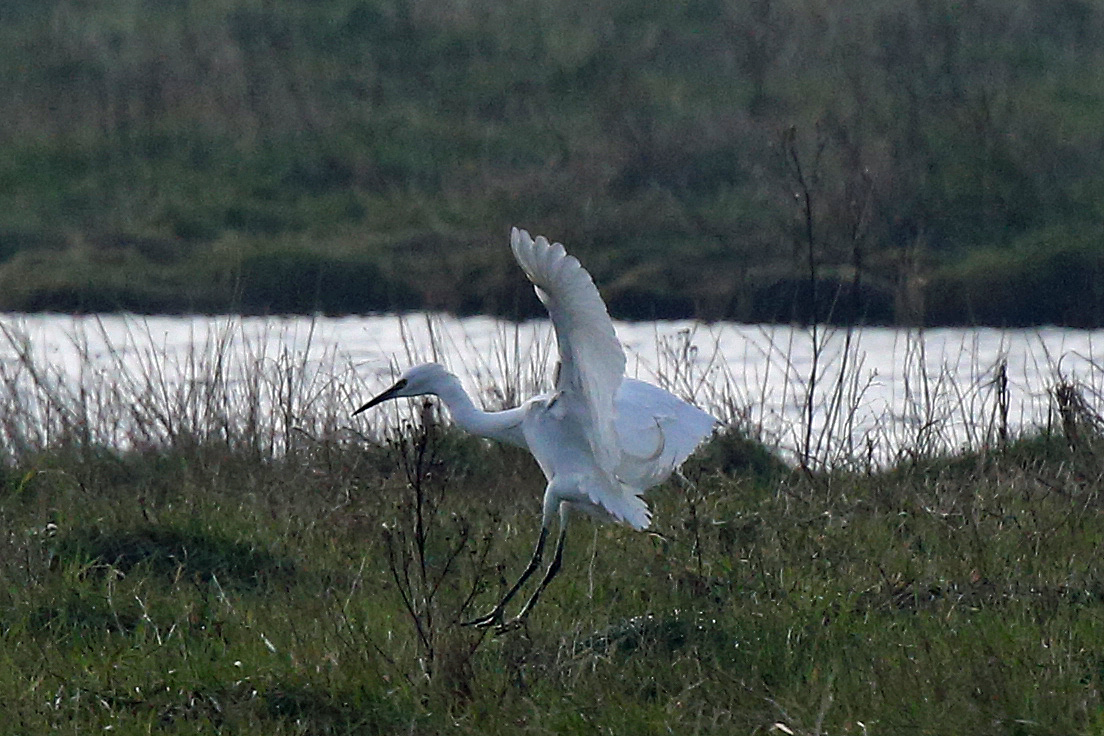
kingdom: Animalia
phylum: Chordata
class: Aves
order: Pelecaniformes
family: Ardeidae
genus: Egretta
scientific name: Egretta garzetta
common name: Little egret
